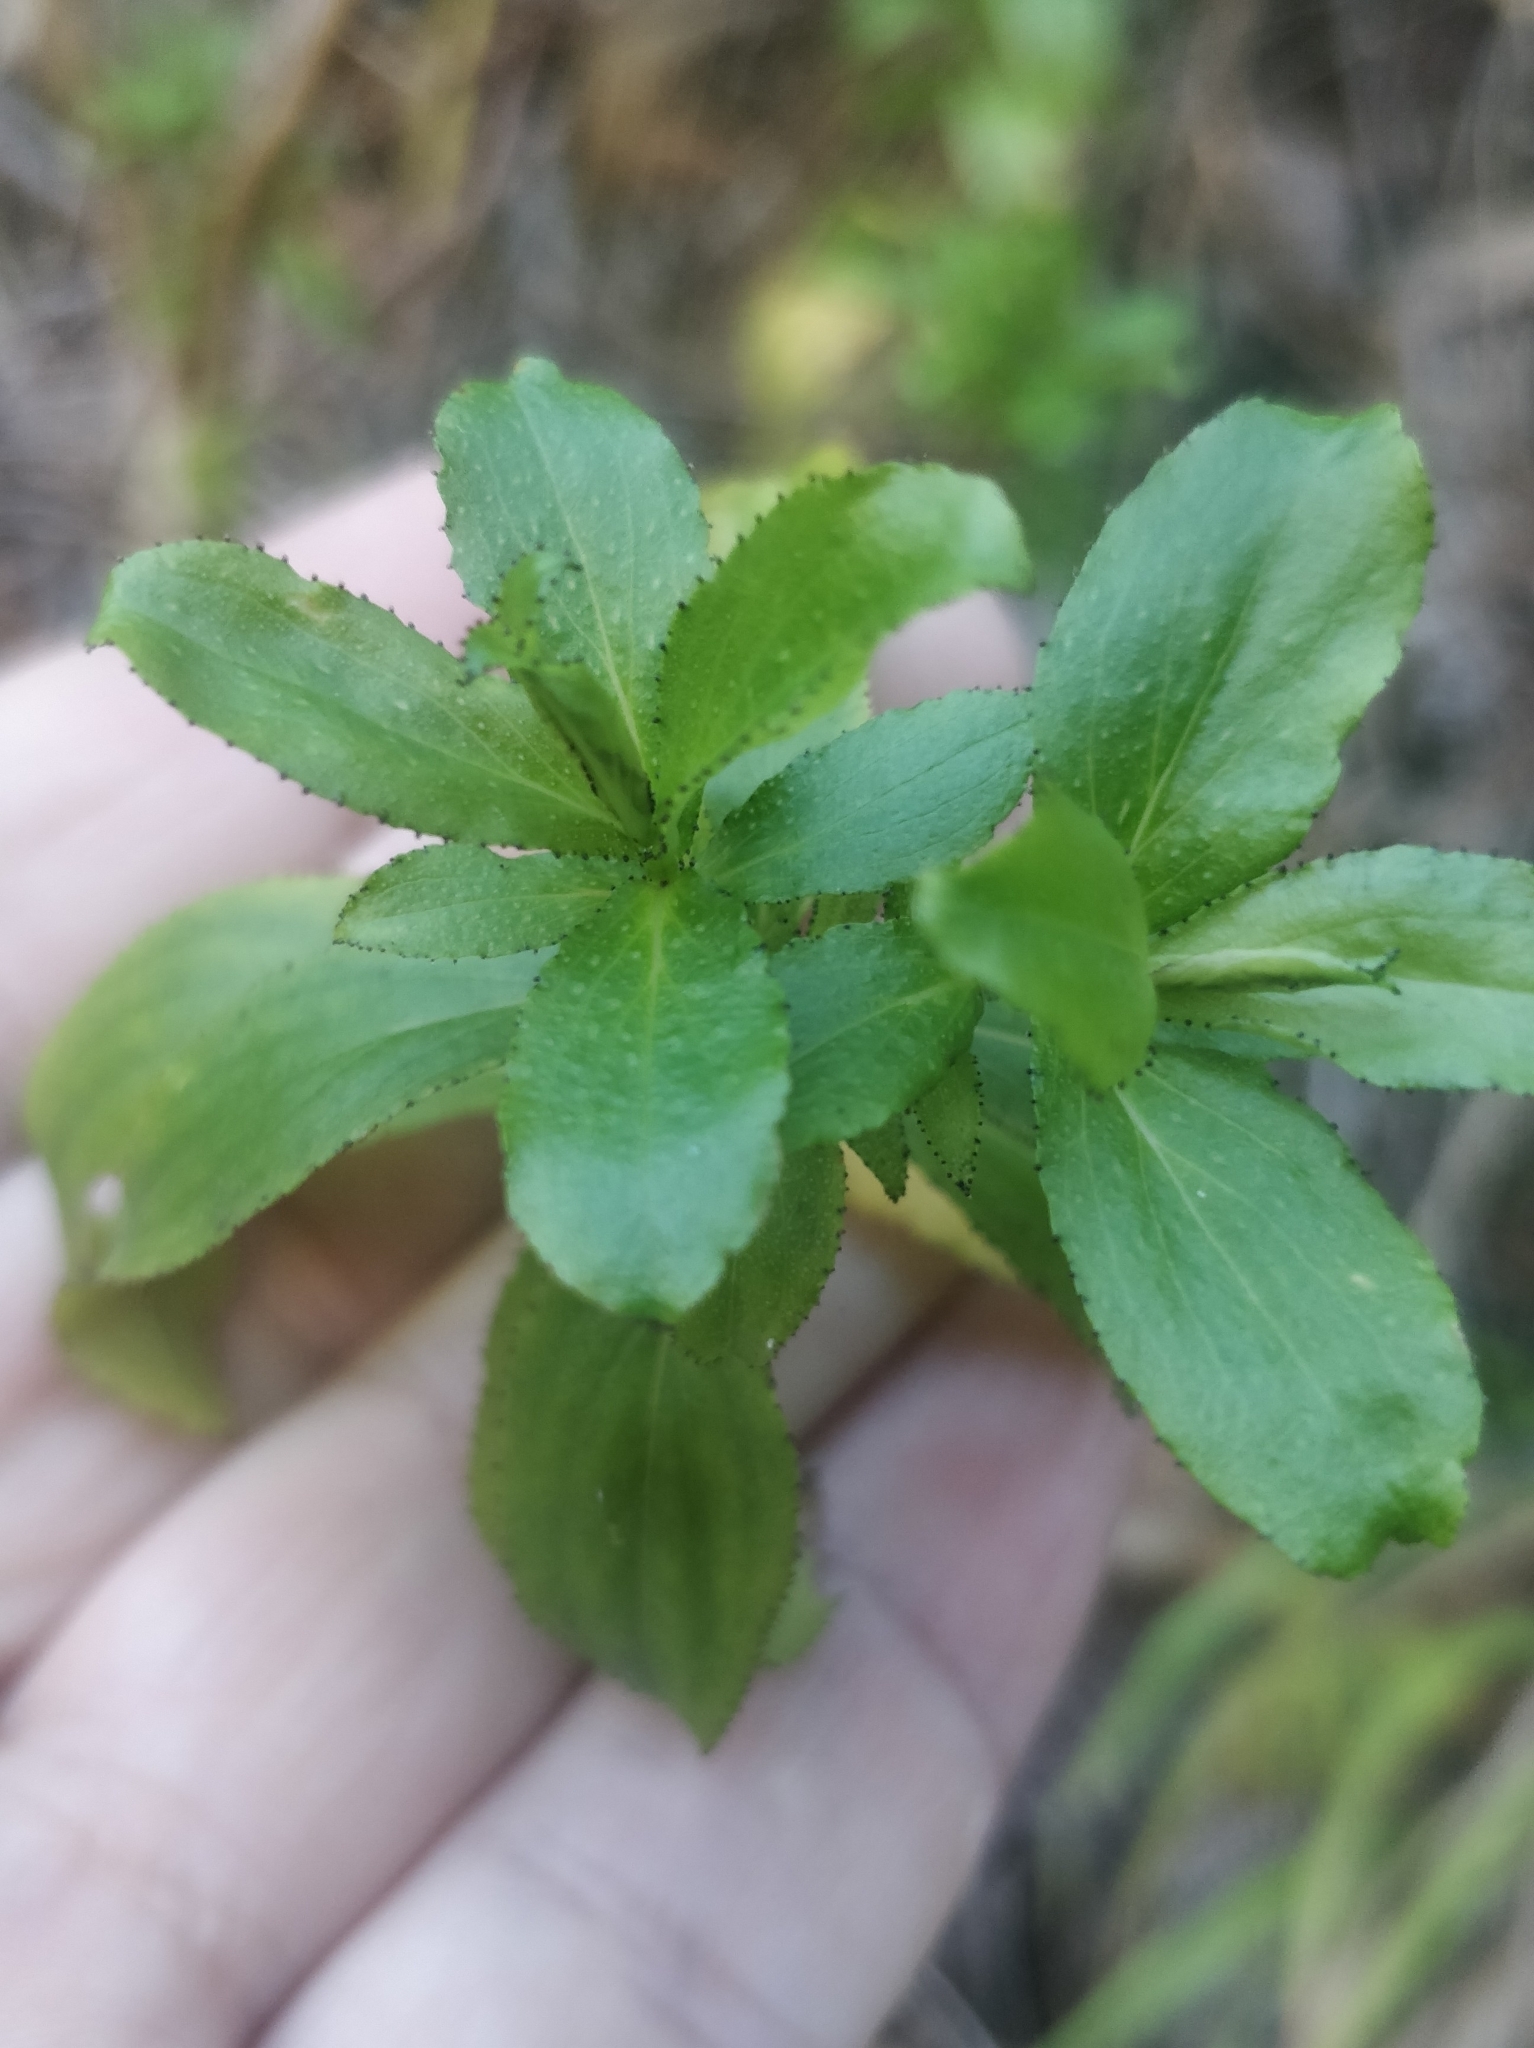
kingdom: Plantae
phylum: Tracheophyta
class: Magnoliopsida
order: Malpighiales
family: Hypericaceae
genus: Hypericum
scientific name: Hypericum glandulosum
